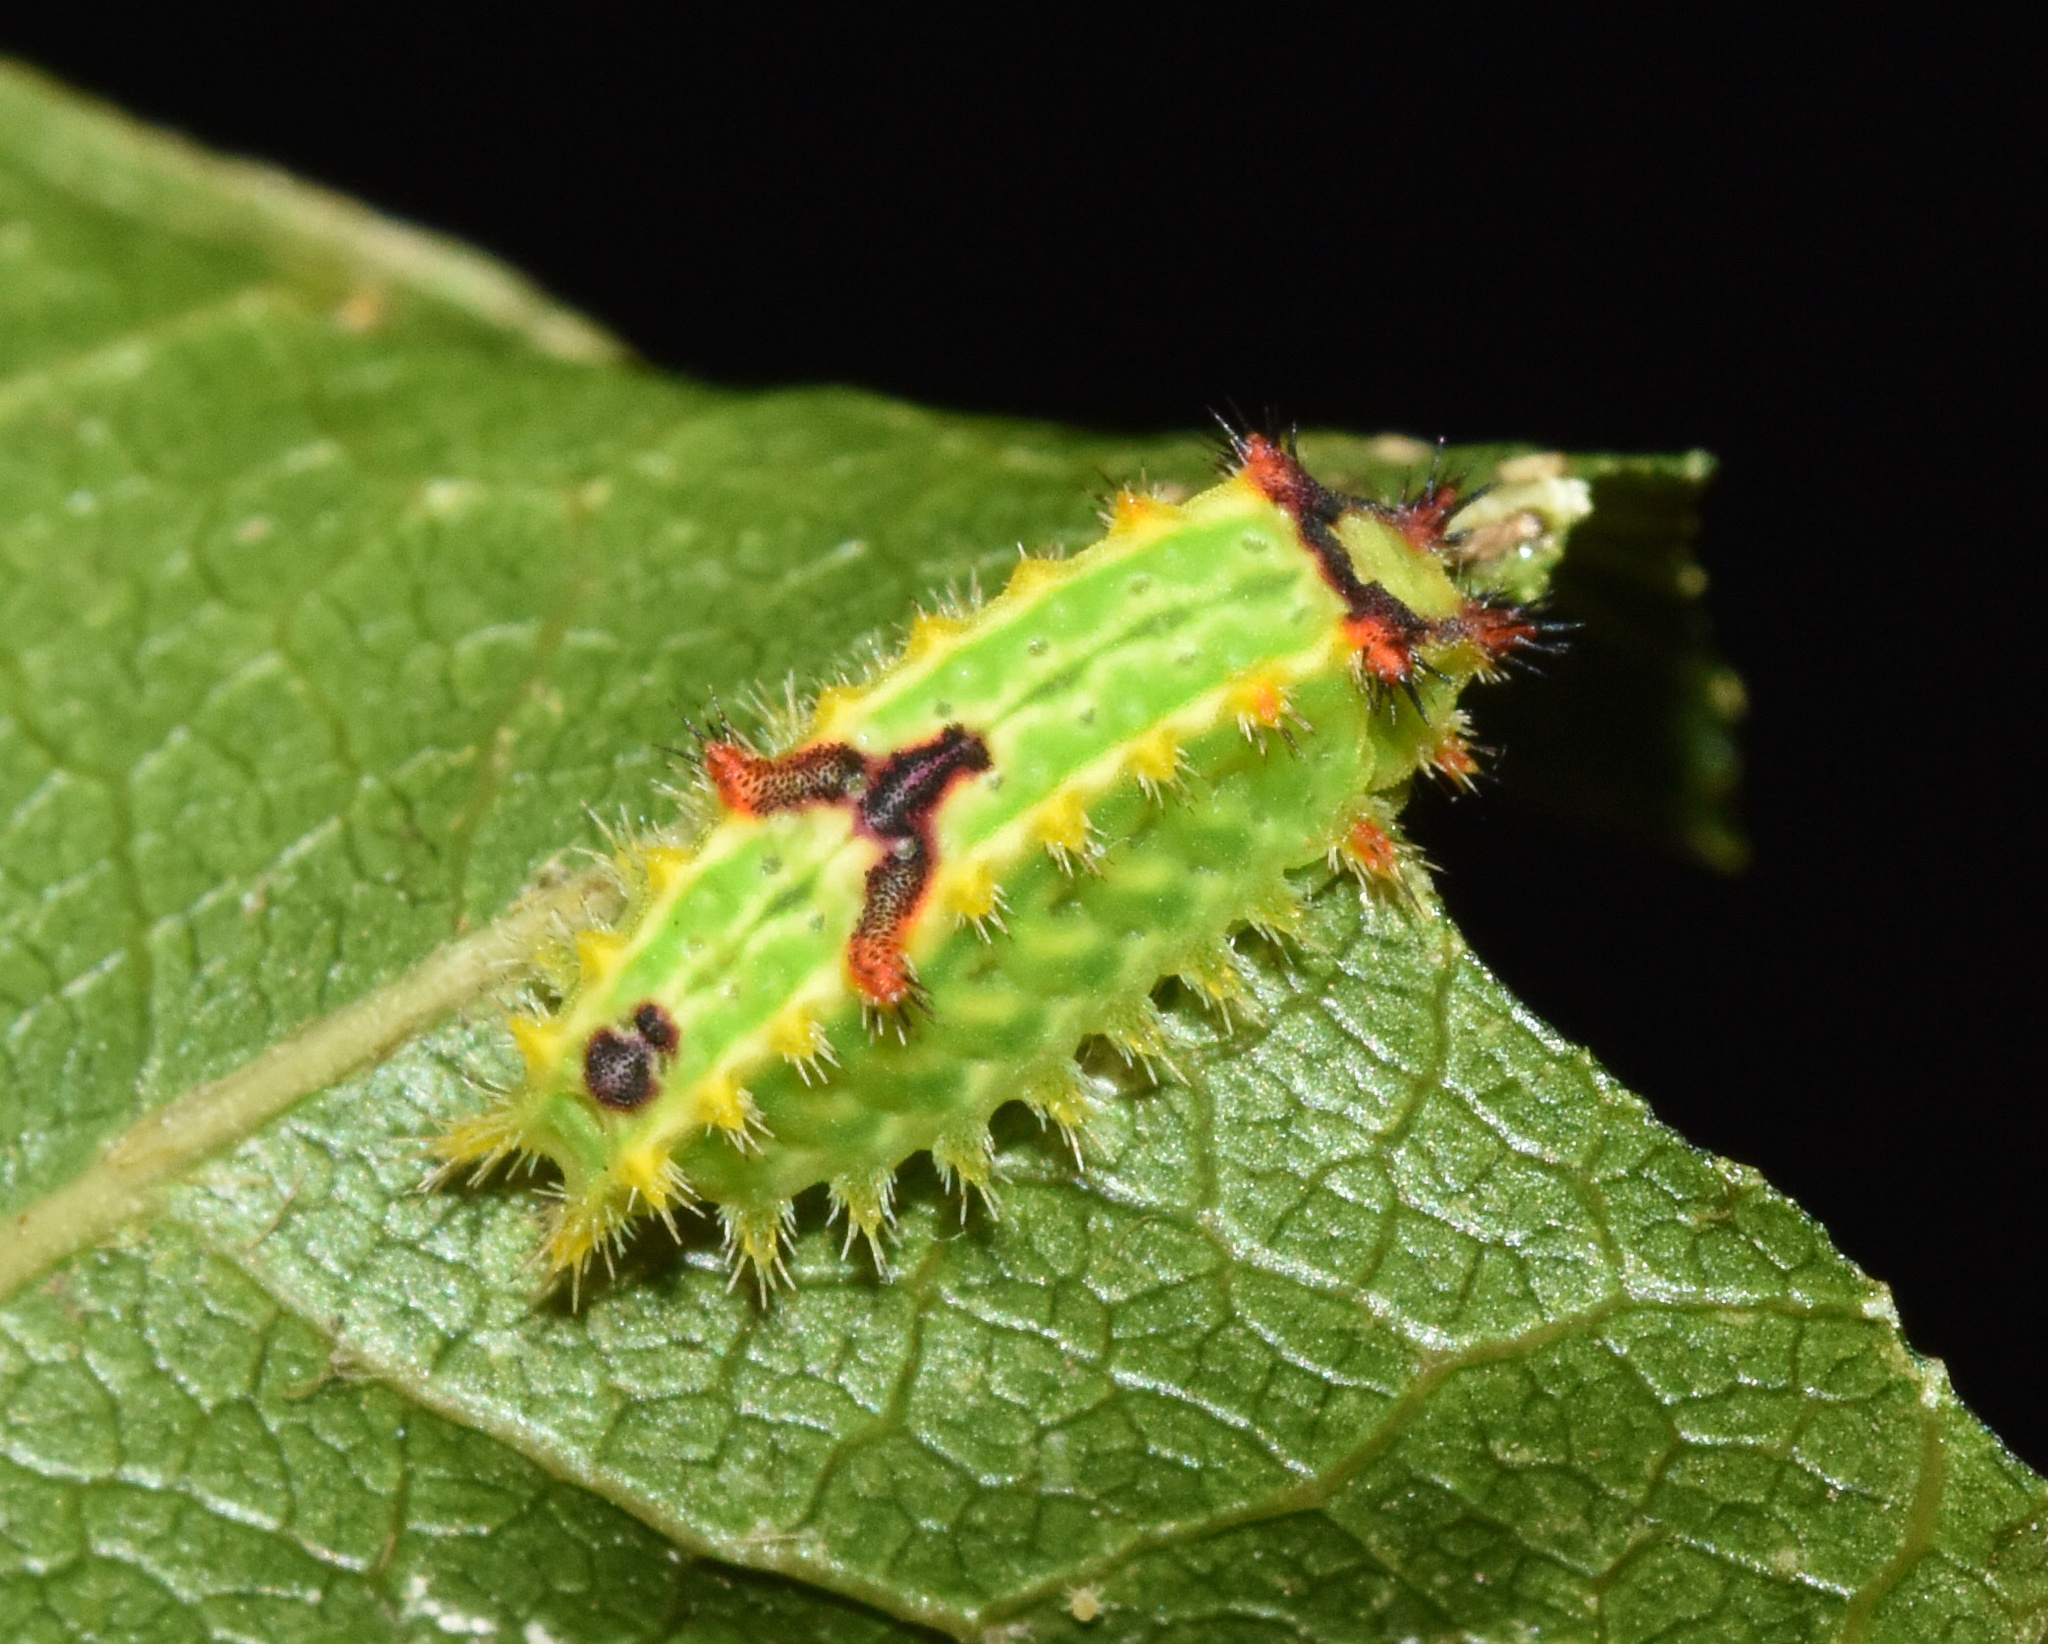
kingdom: Animalia
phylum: Arthropoda
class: Insecta
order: Lepidoptera
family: Limacodidae
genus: Micraphe
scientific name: Micraphe lateritia
